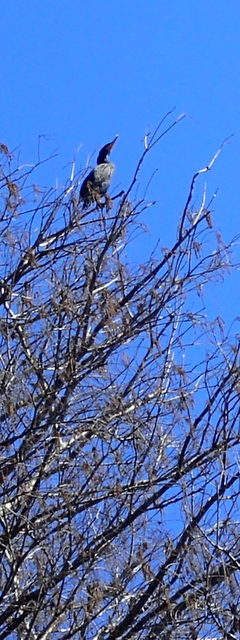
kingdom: Animalia
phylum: Chordata
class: Aves
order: Suliformes
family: Phalacrocoracidae
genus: Phalacrocorax
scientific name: Phalacrocorax auritus
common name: Double-crested cormorant
